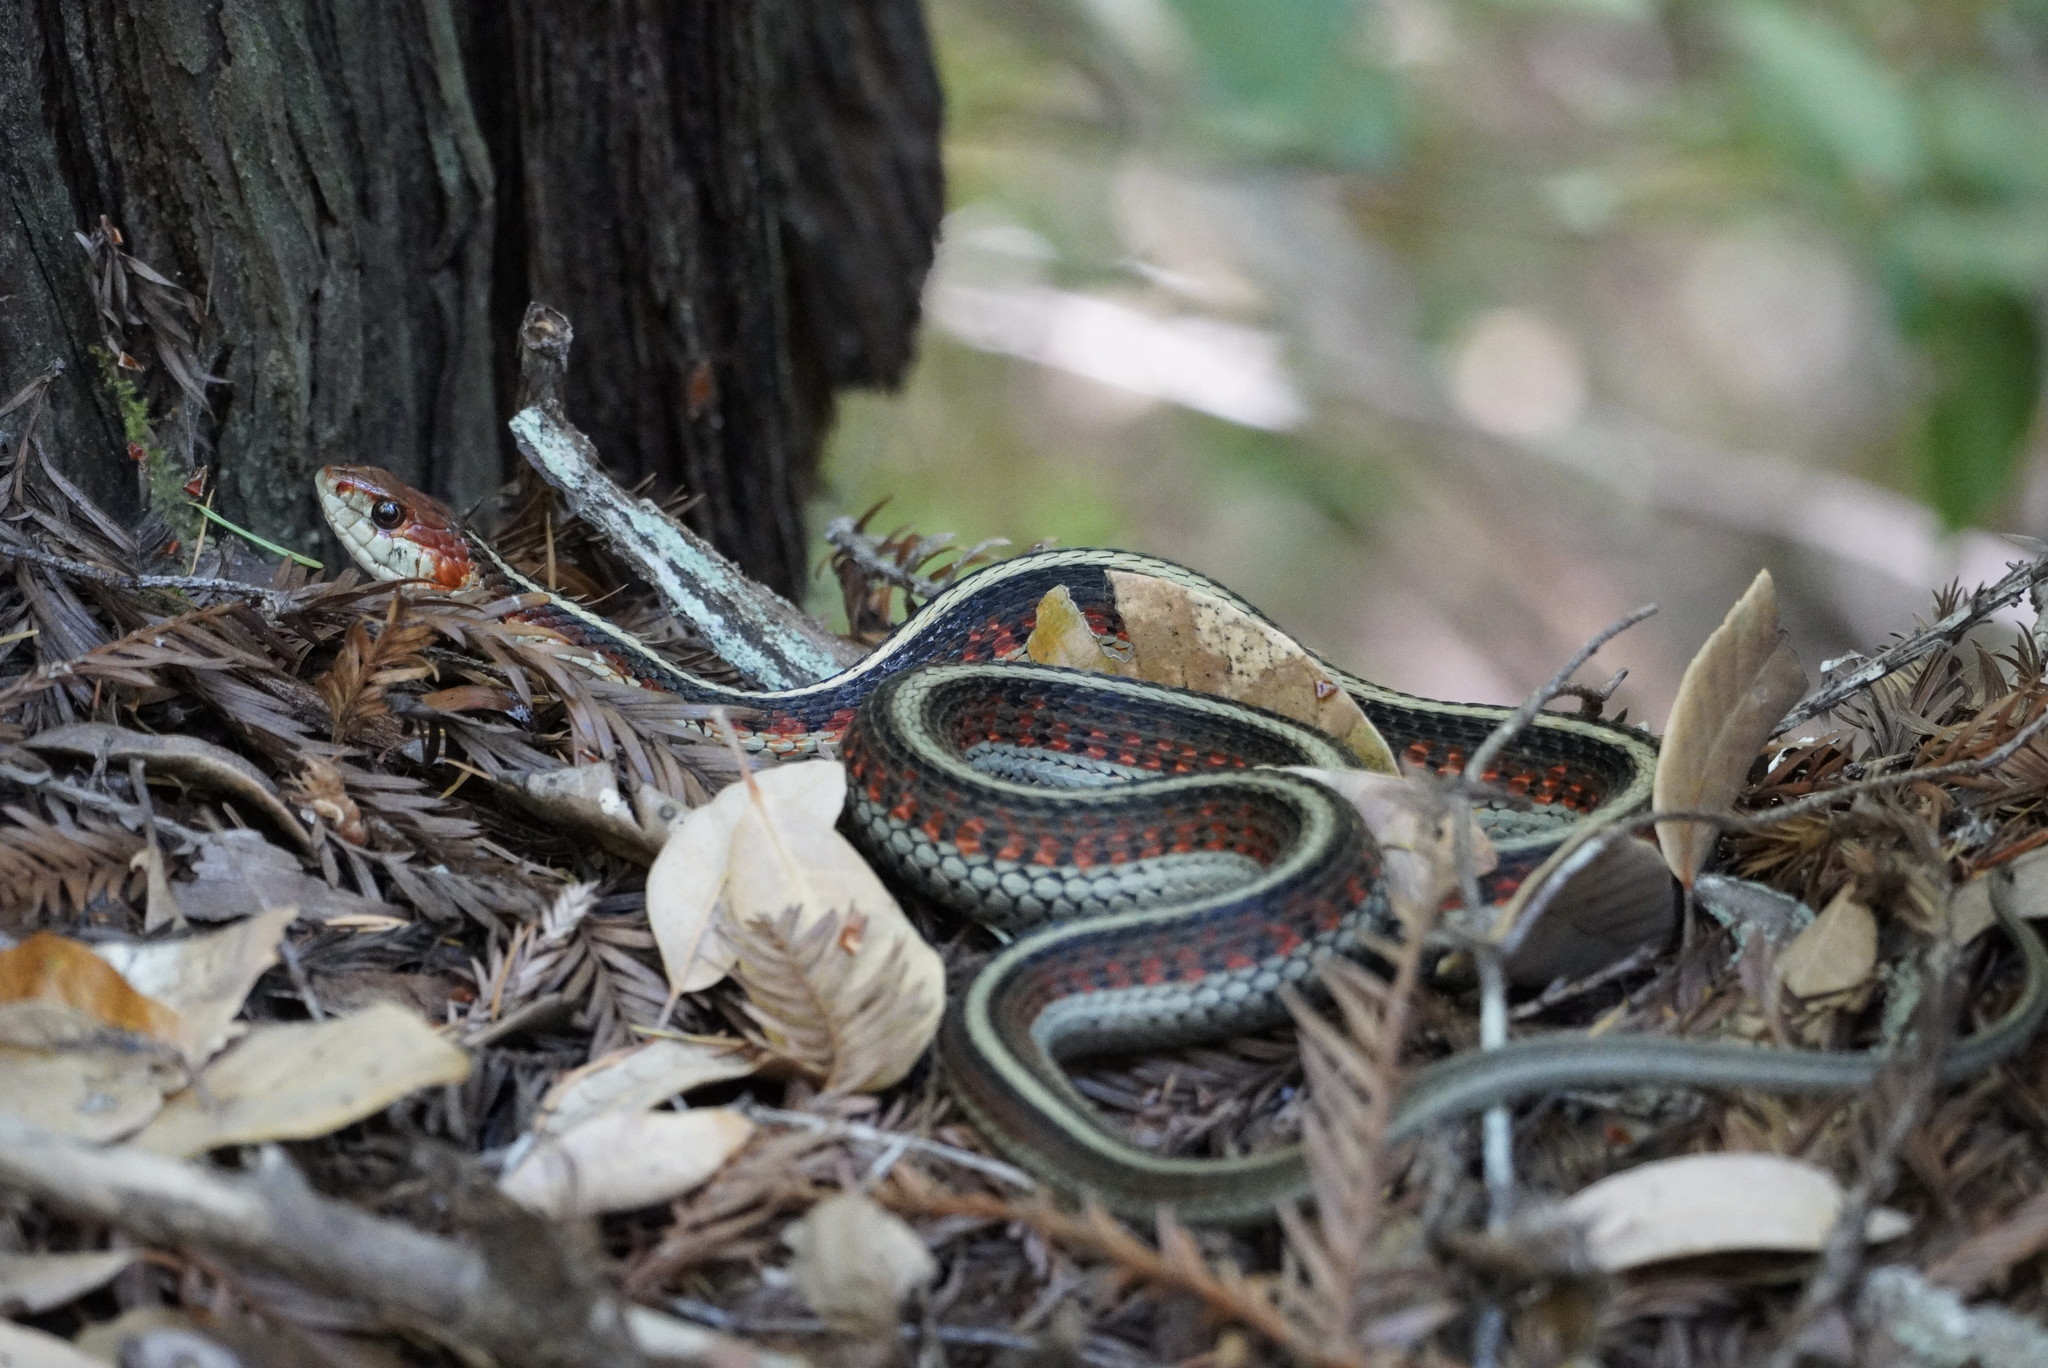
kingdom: Animalia
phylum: Chordata
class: Squamata
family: Colubridae
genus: Thamnophis
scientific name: Thamnophis sirtalis
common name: Common garter snake
